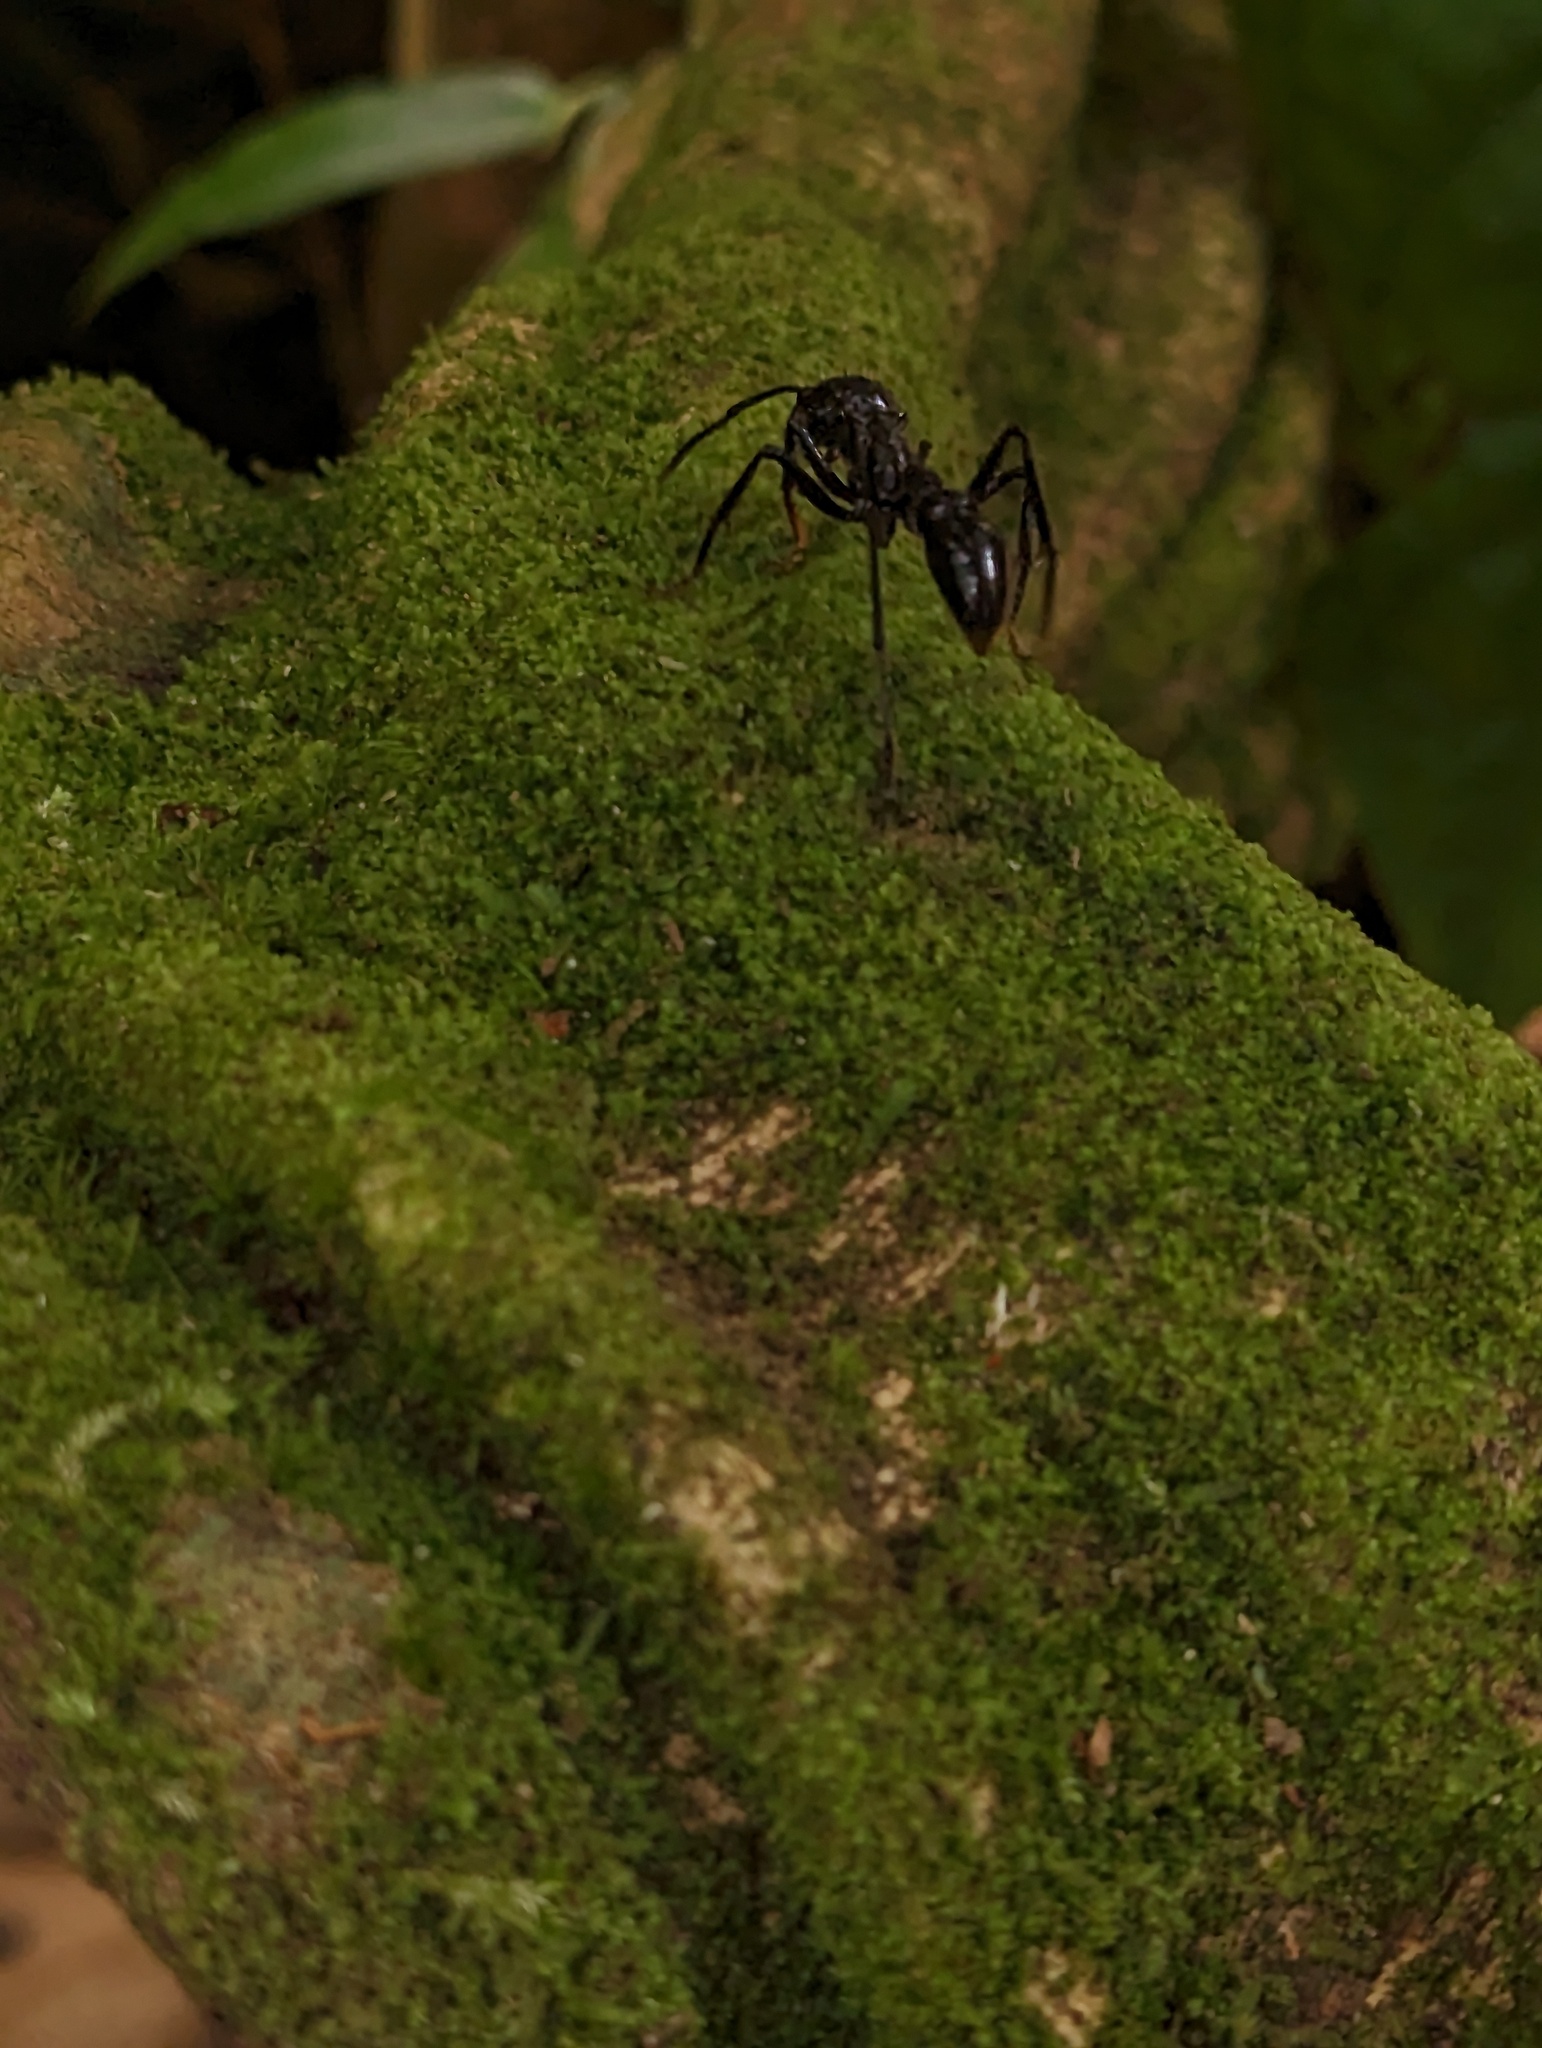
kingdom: Animalia
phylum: Arthropoda
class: Insecta
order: Hymenoptera
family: Formicidae
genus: Paraponera
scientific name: Paraponera clavata
